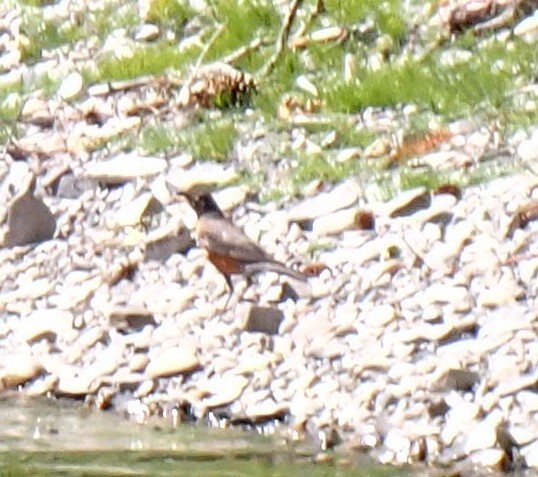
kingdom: Animalia
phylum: Chordata
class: Aves
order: Passeriformes
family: Turdidae
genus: Turdus
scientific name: Turdus migratorius
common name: American robin
